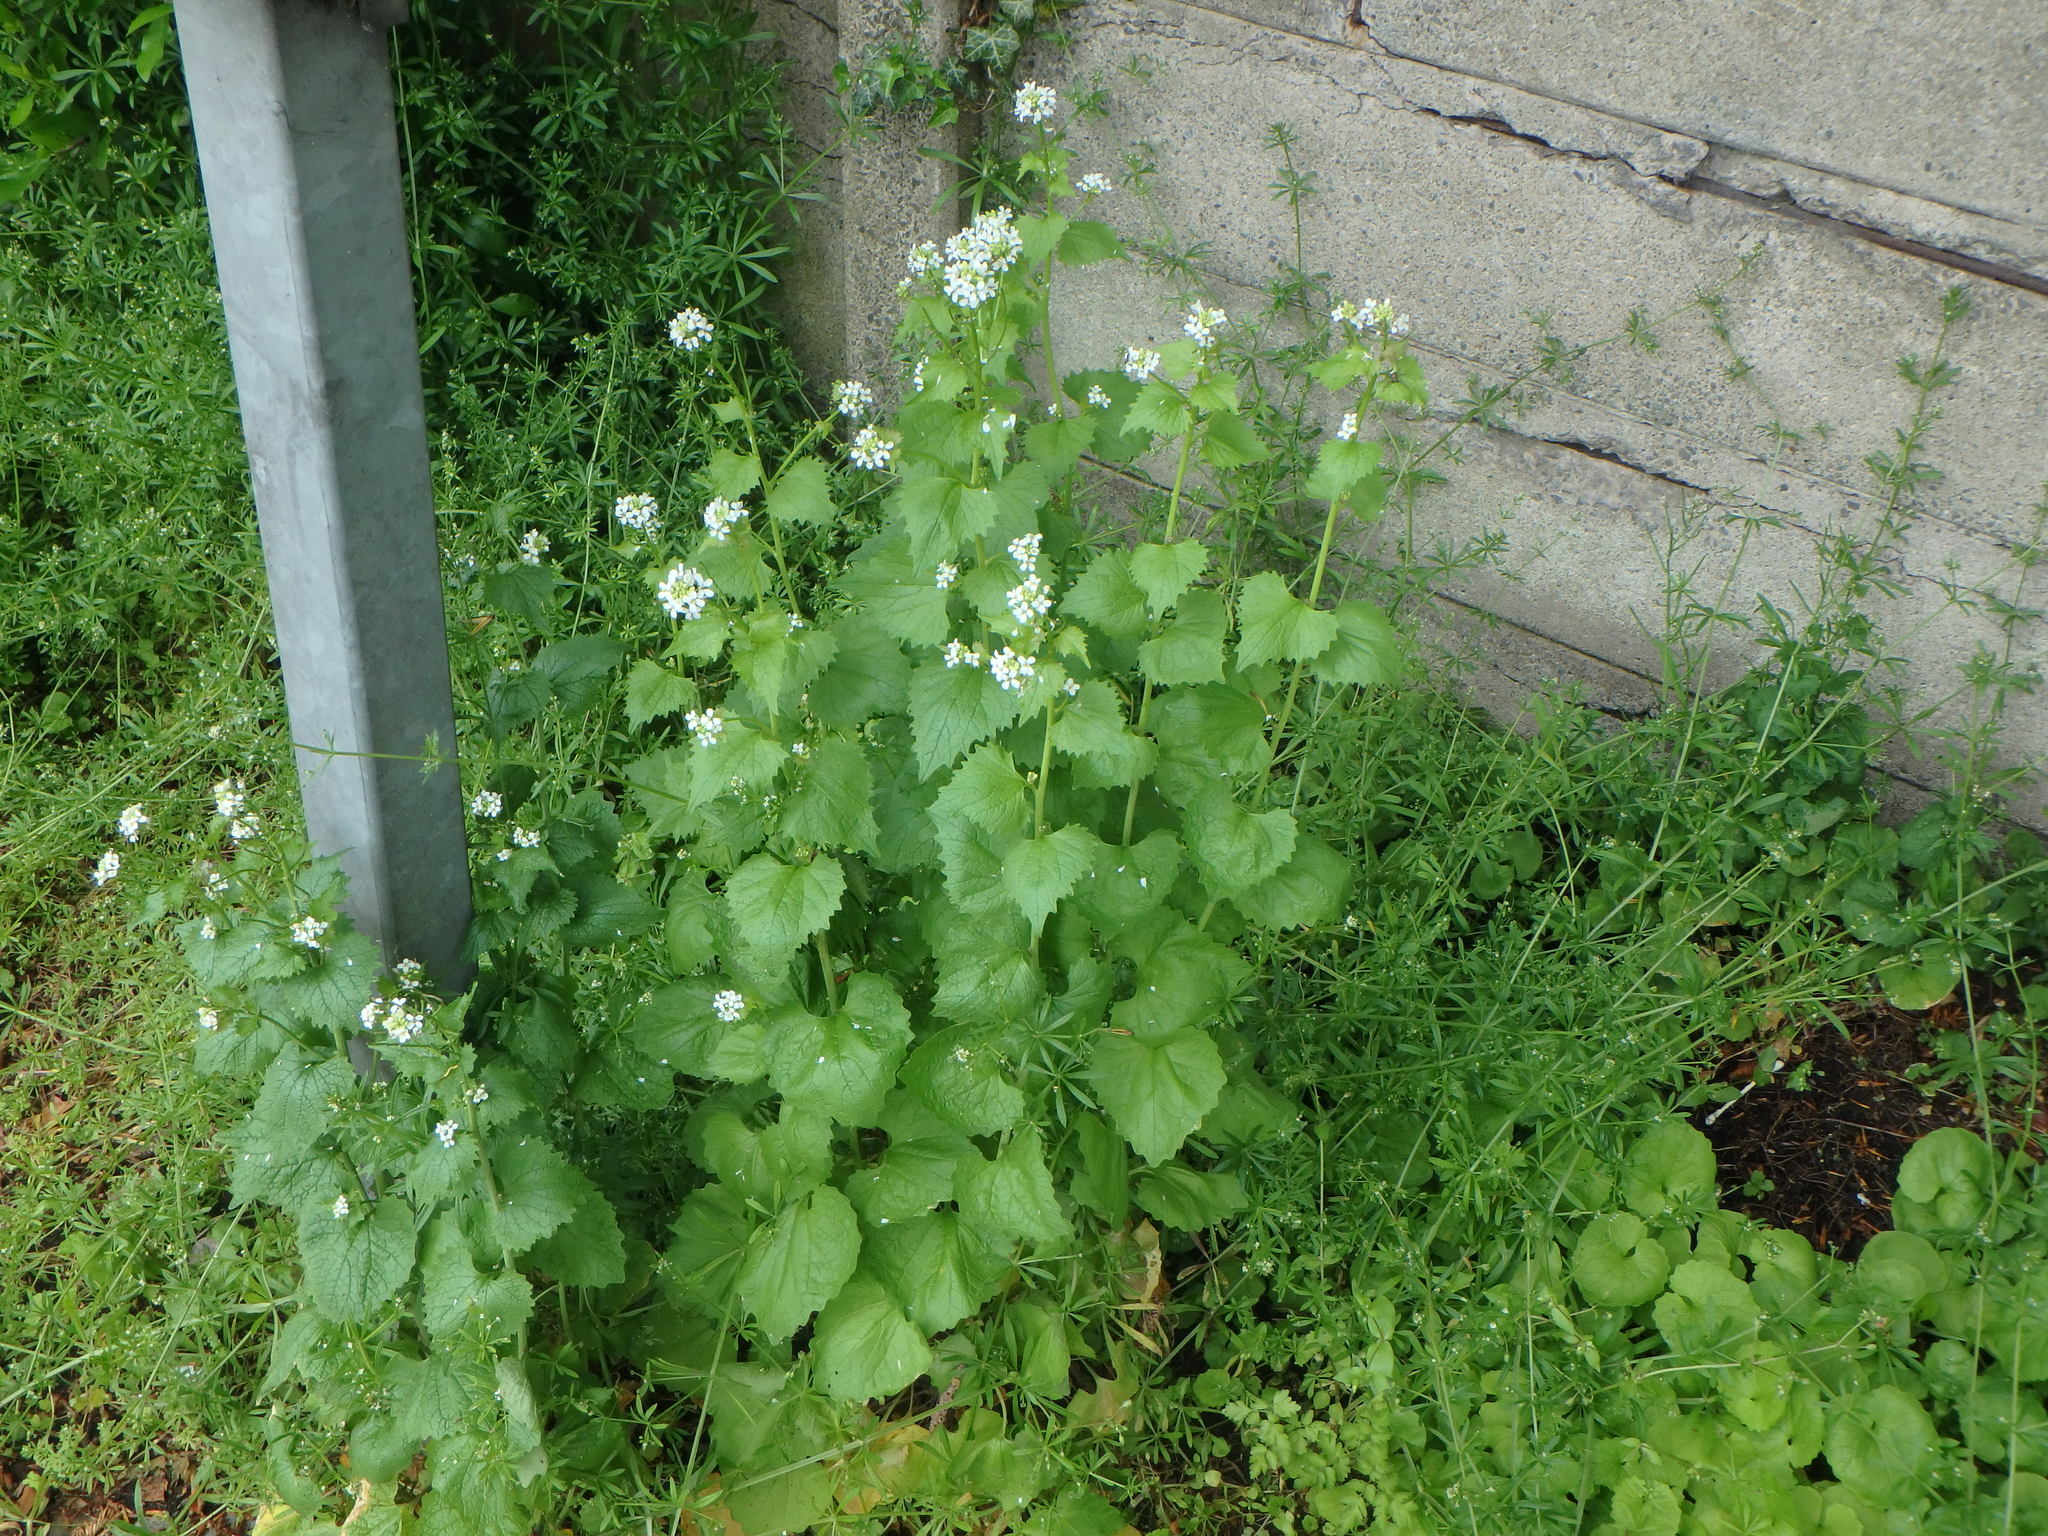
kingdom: Plantae
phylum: Tracheophyta
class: Magnoliopsida
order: Brassicales
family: Brassicaceae
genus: Alliaria
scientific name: Alliaria petiolata
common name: Garlic mustard
